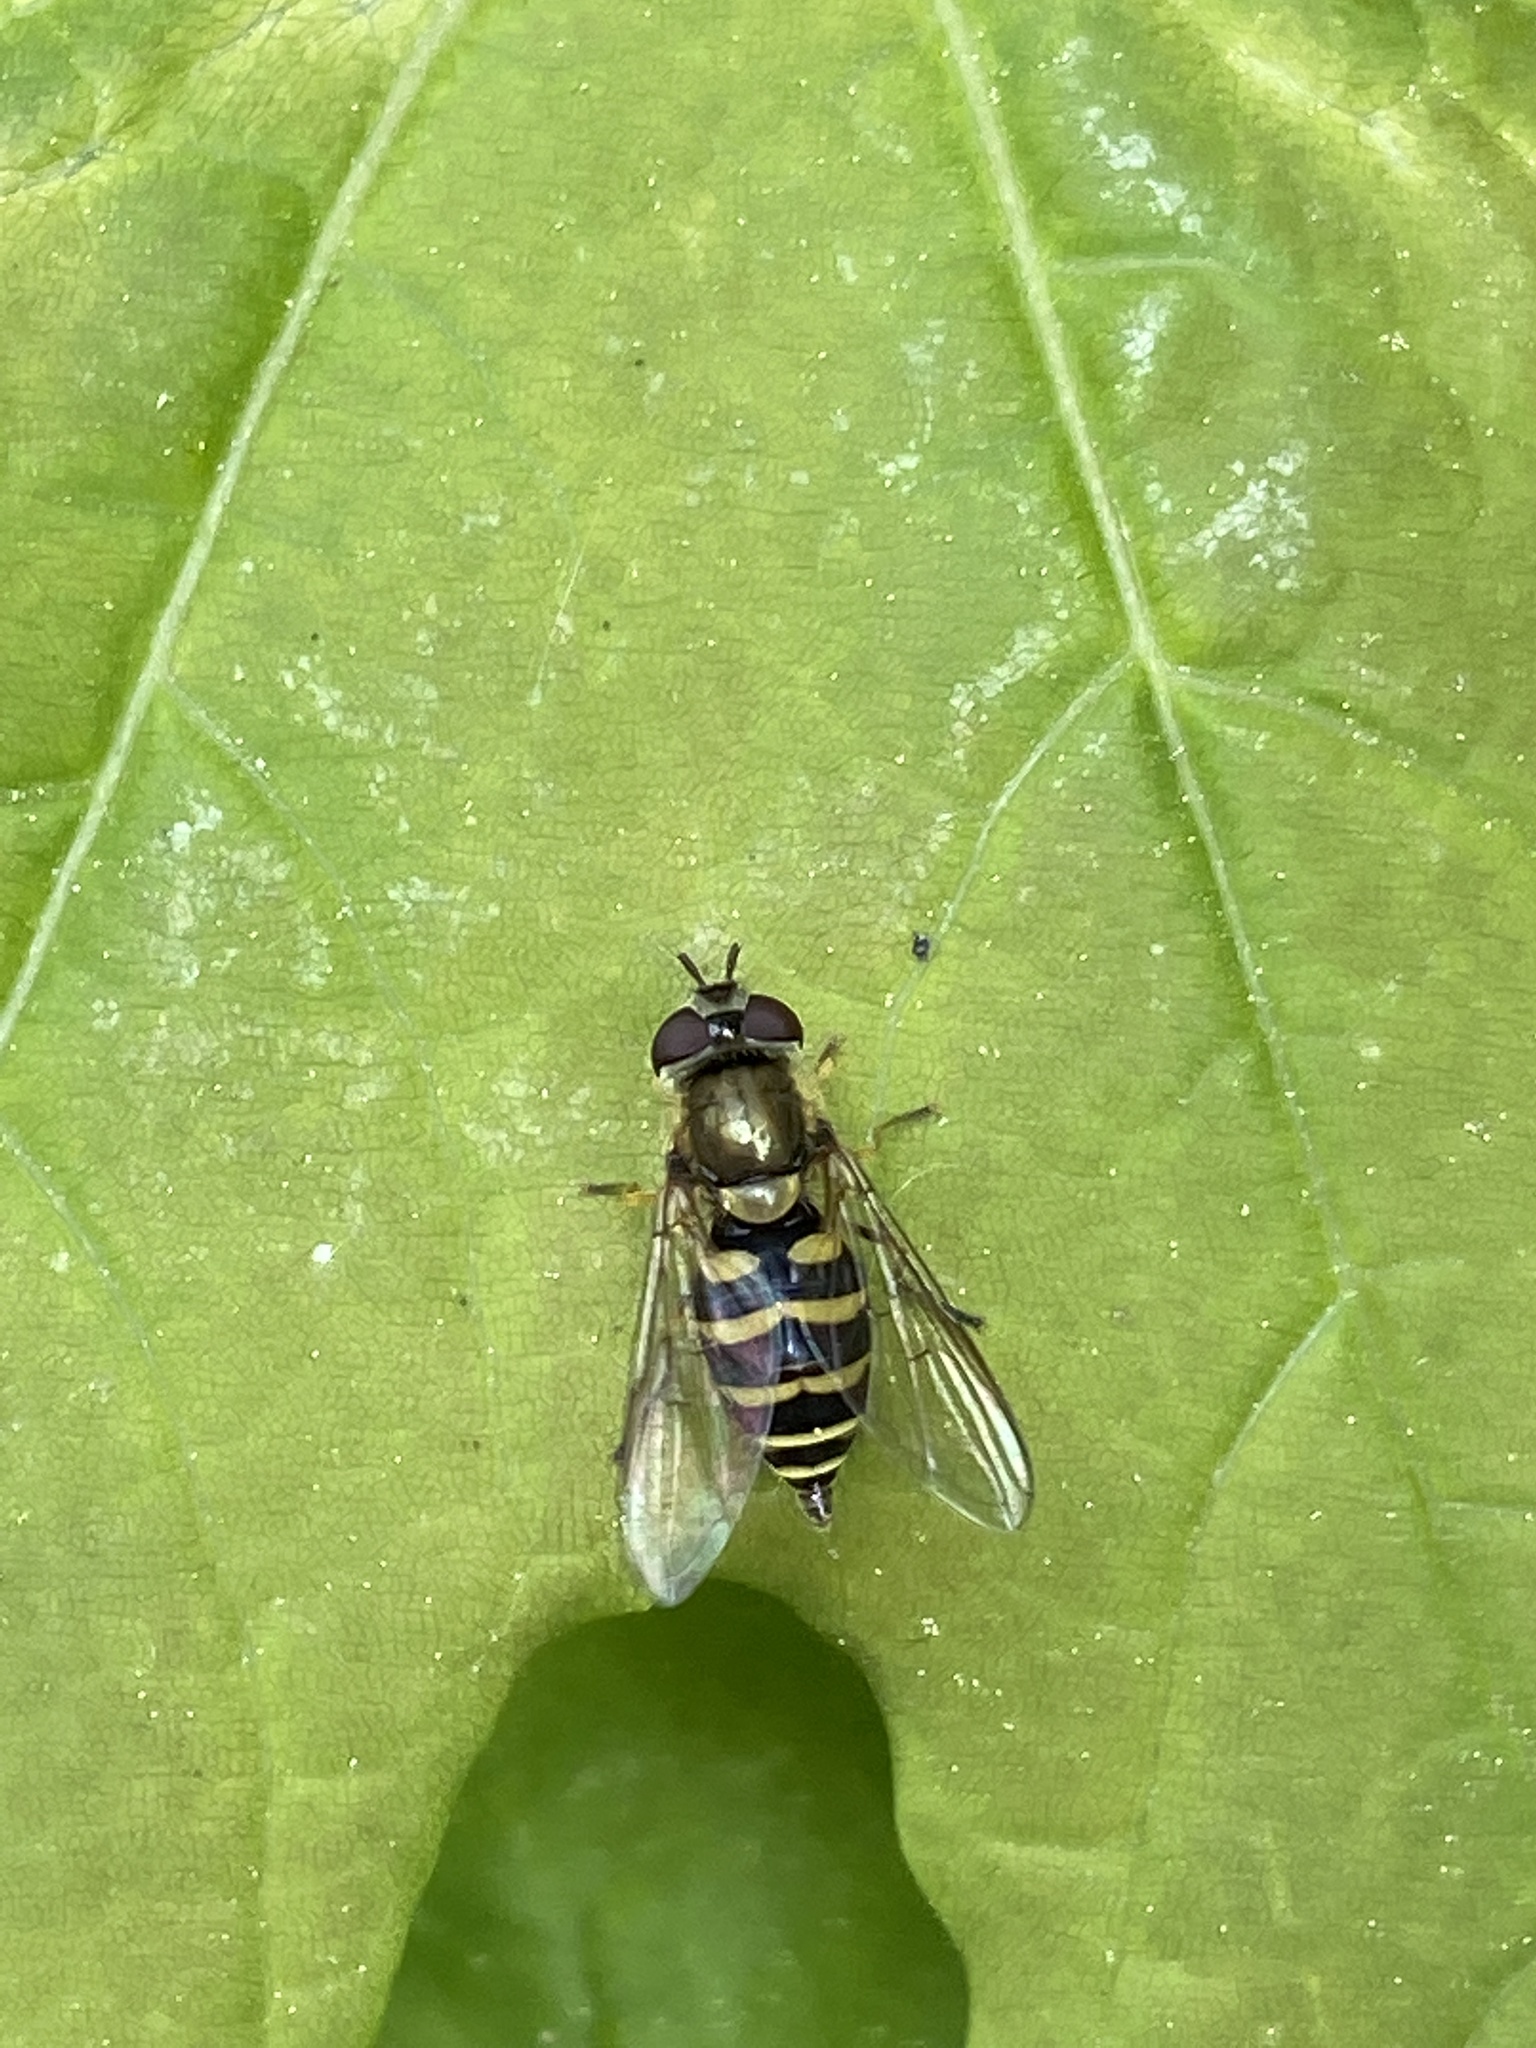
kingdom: Animalia
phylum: Arthropoda
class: Insecta
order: Diptera
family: Syrphidae
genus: Syrphus
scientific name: Syrphus
